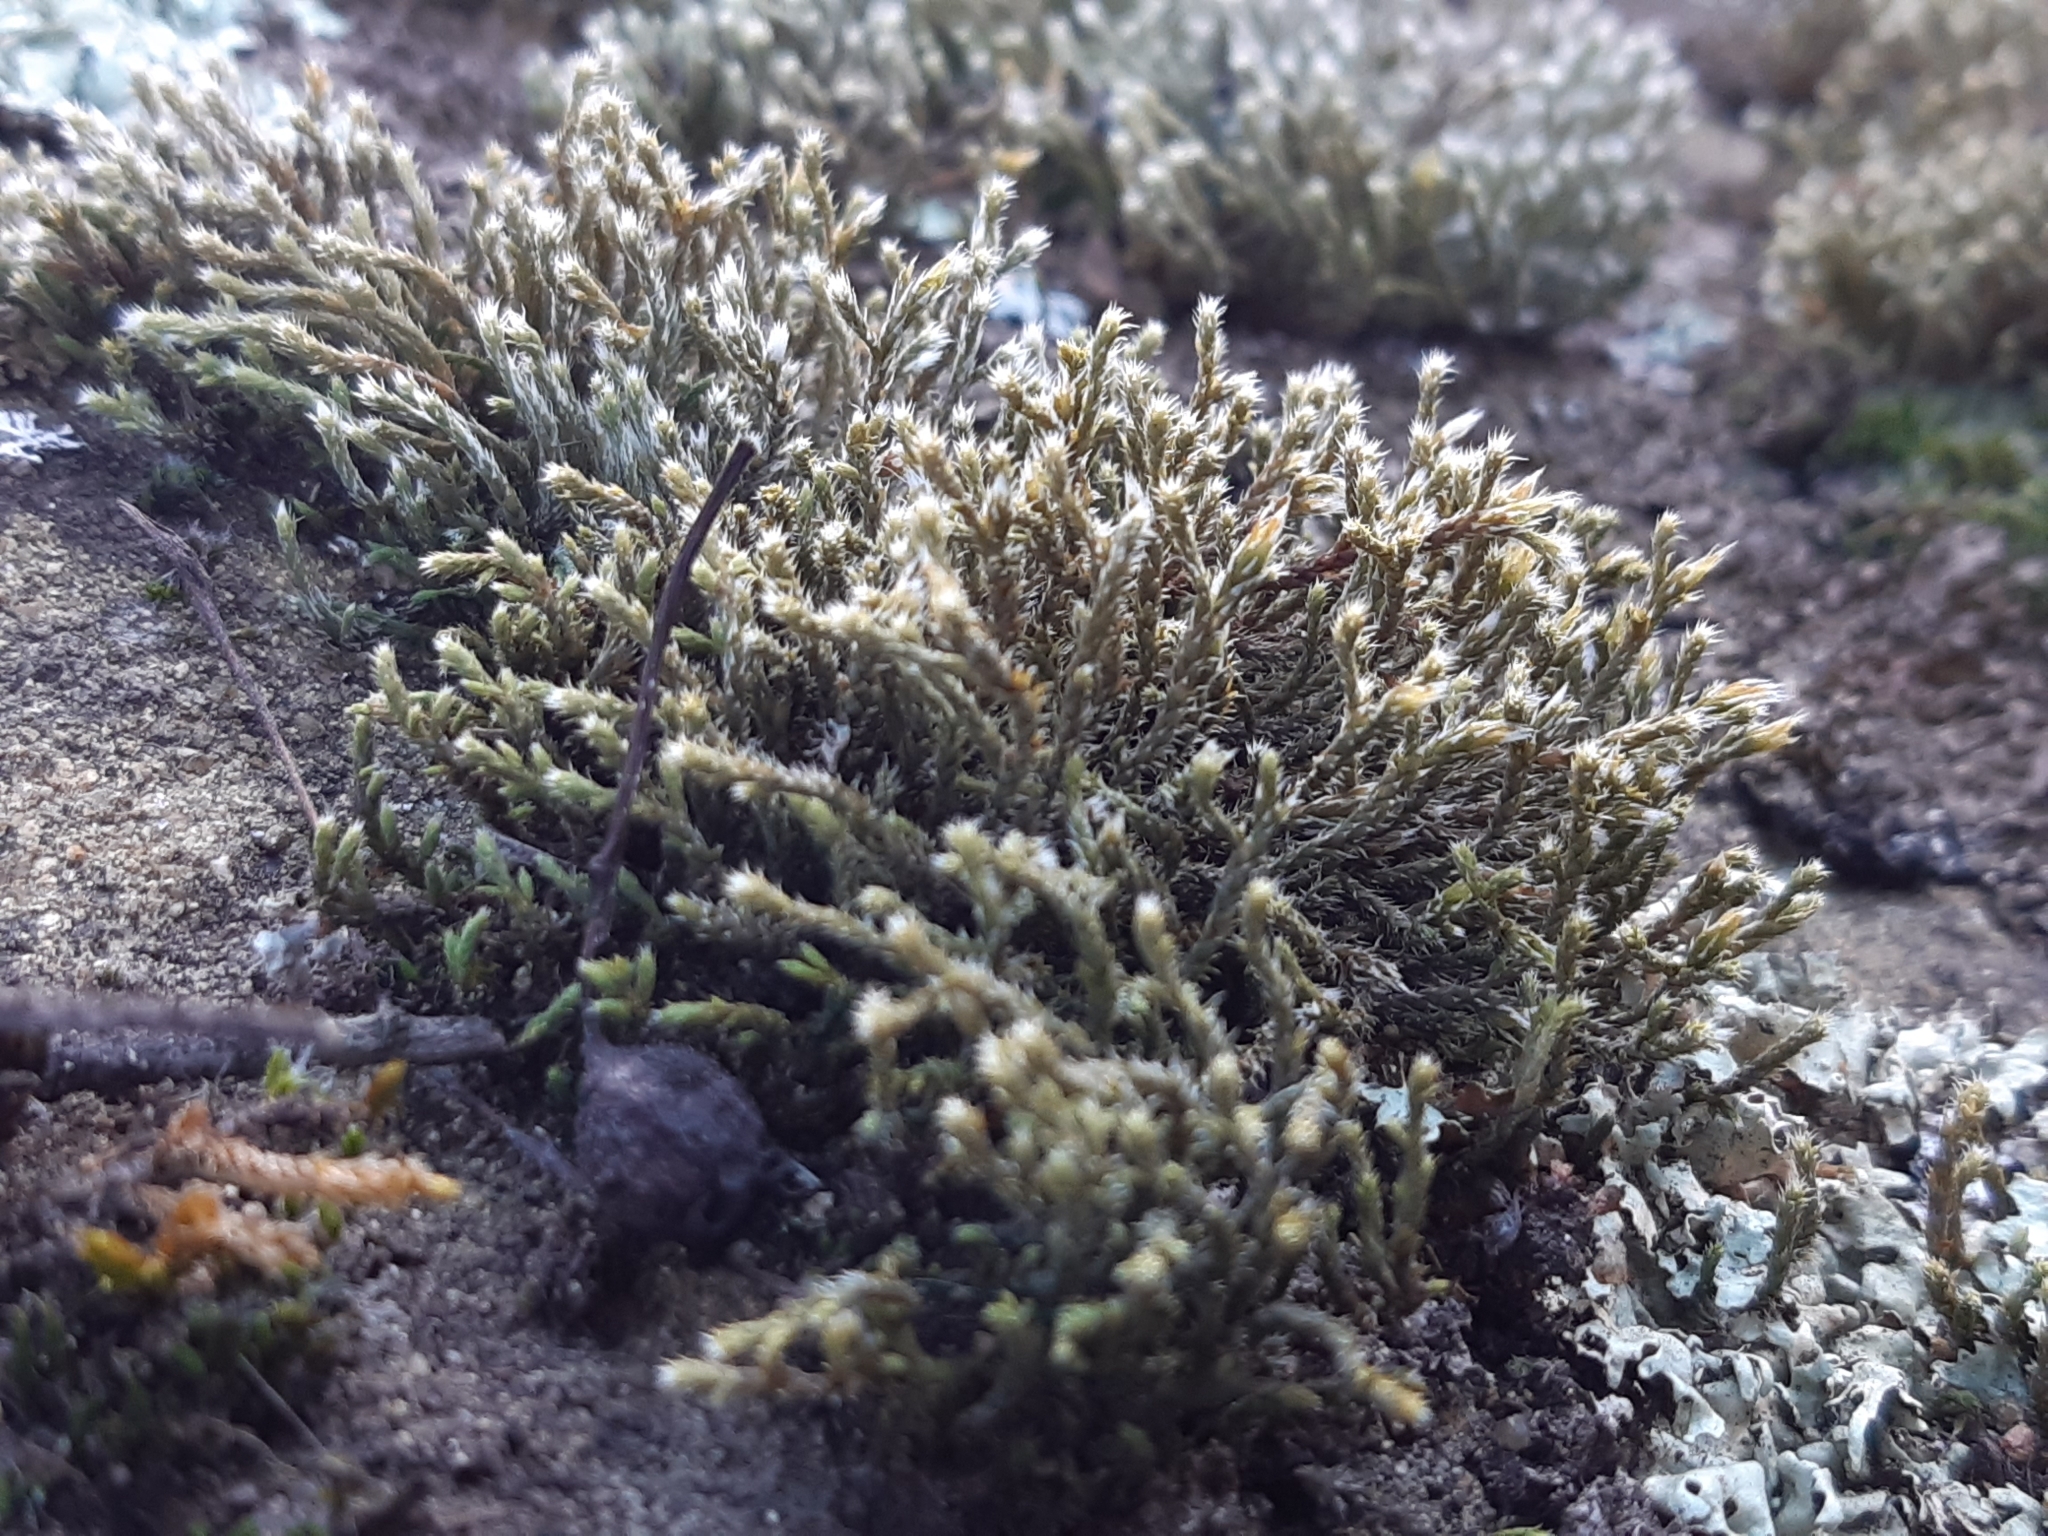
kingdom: Plantae
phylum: Bryophyta
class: Bryopsida
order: Hedwigiales
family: Hedwigiaceae
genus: Hedwigia
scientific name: Hedwigia emodica
